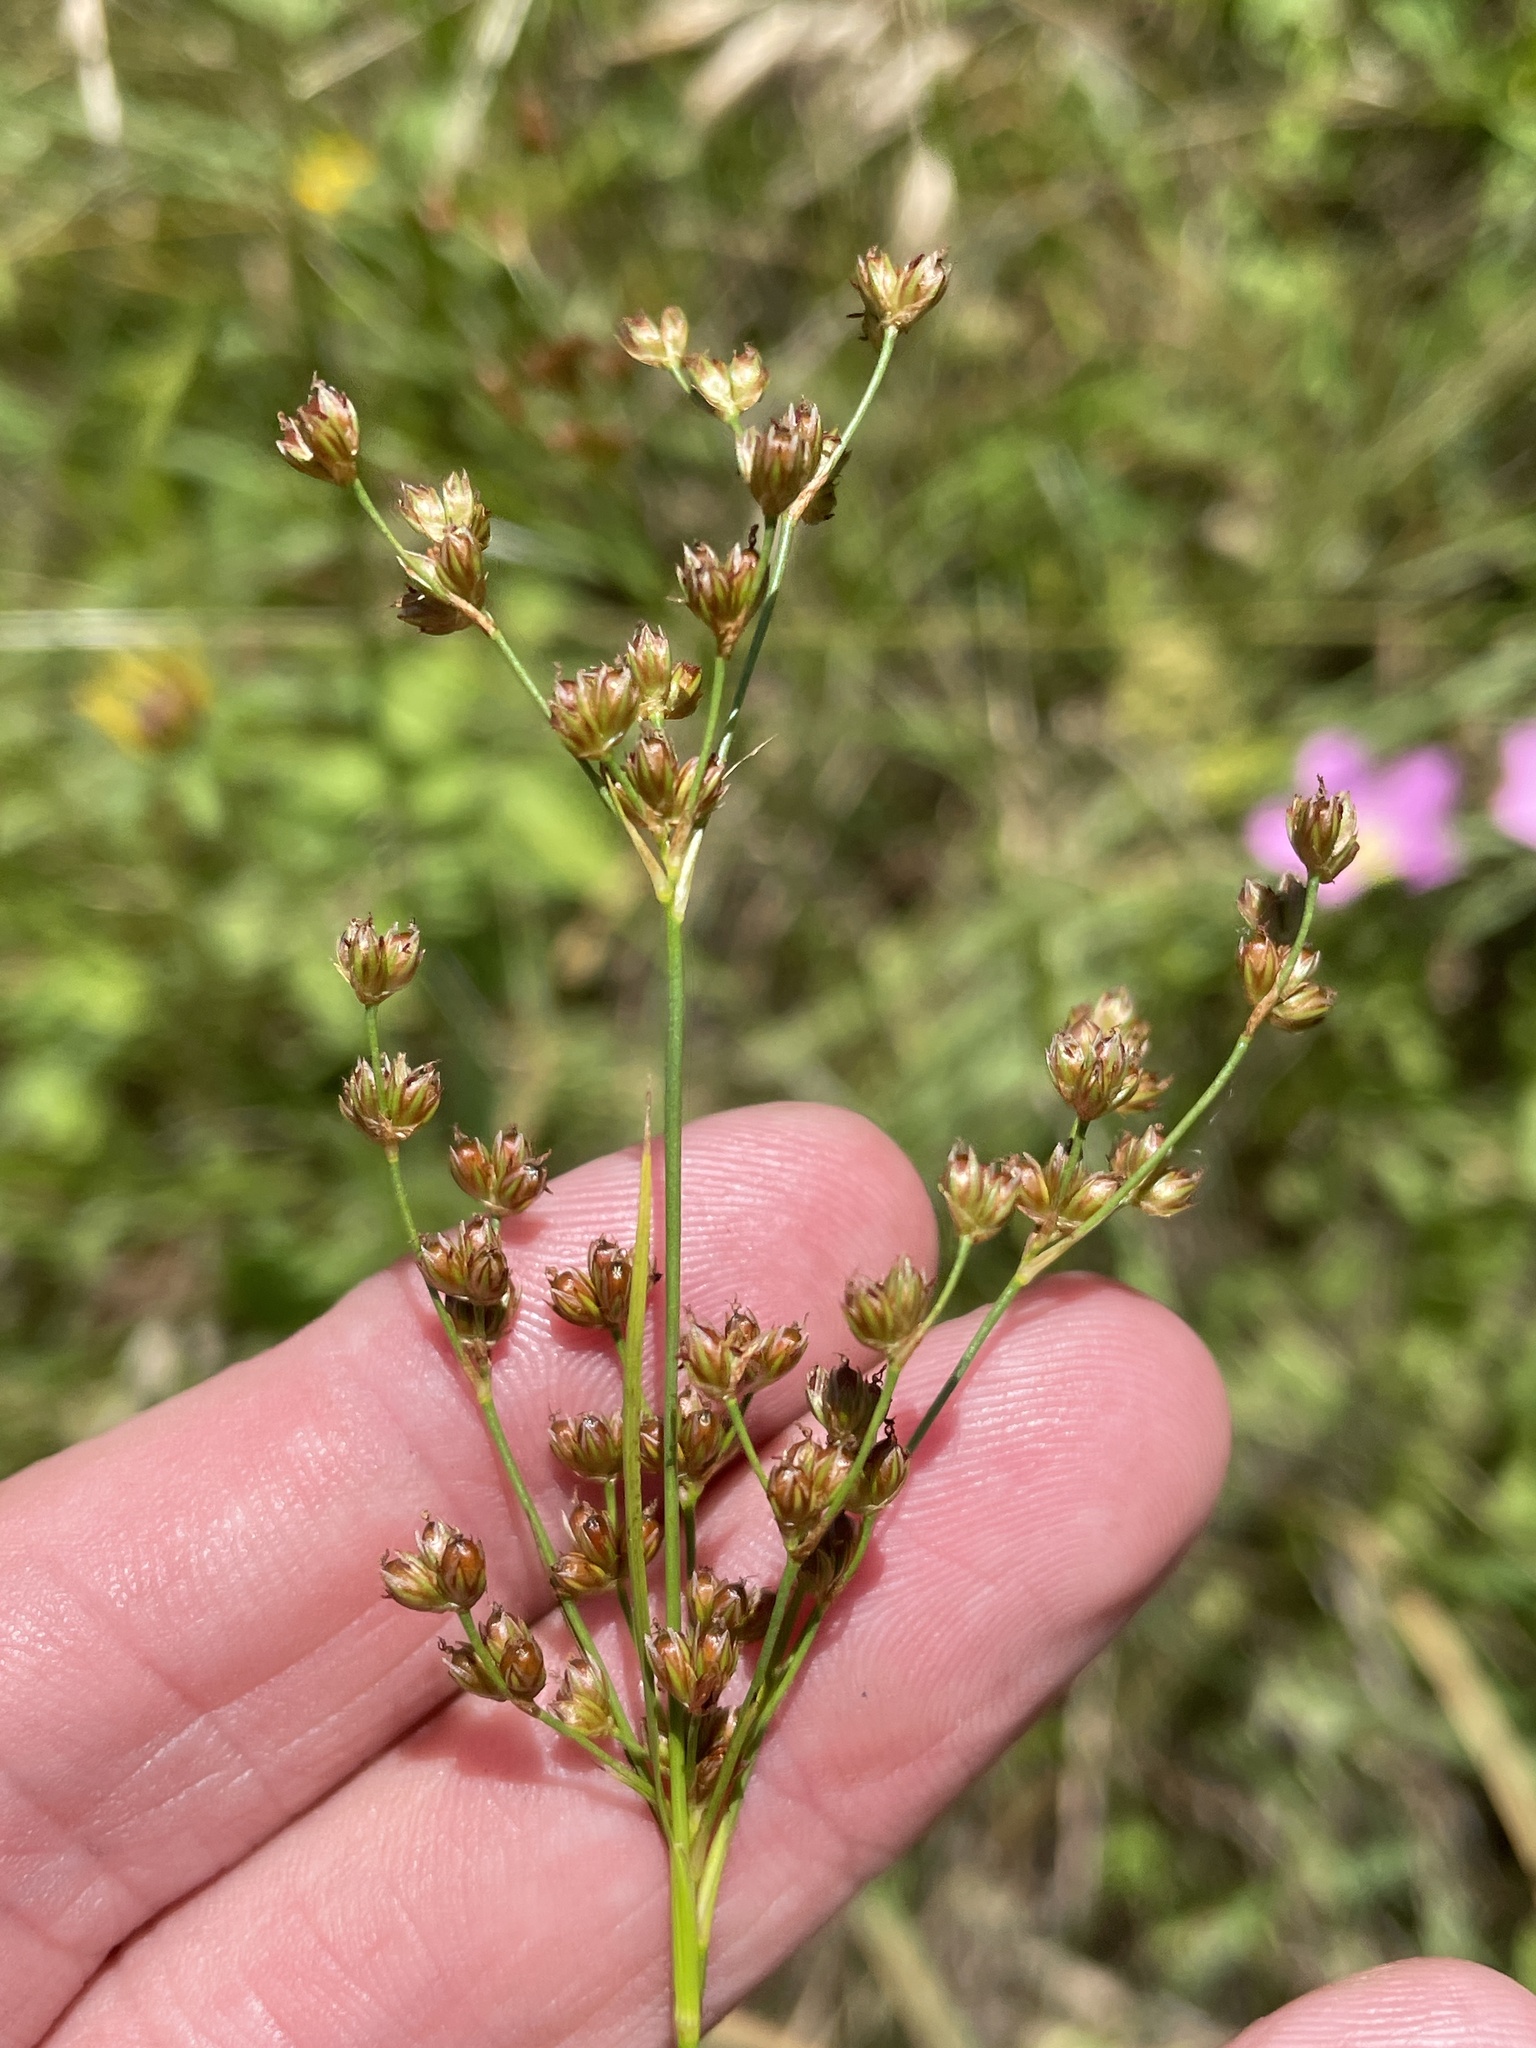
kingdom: Plantae
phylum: Tracheophyta
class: Liliopsida
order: Poales
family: Juncaceae
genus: Juncus
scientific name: Juncus marginatus
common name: Grass-leaf rush
